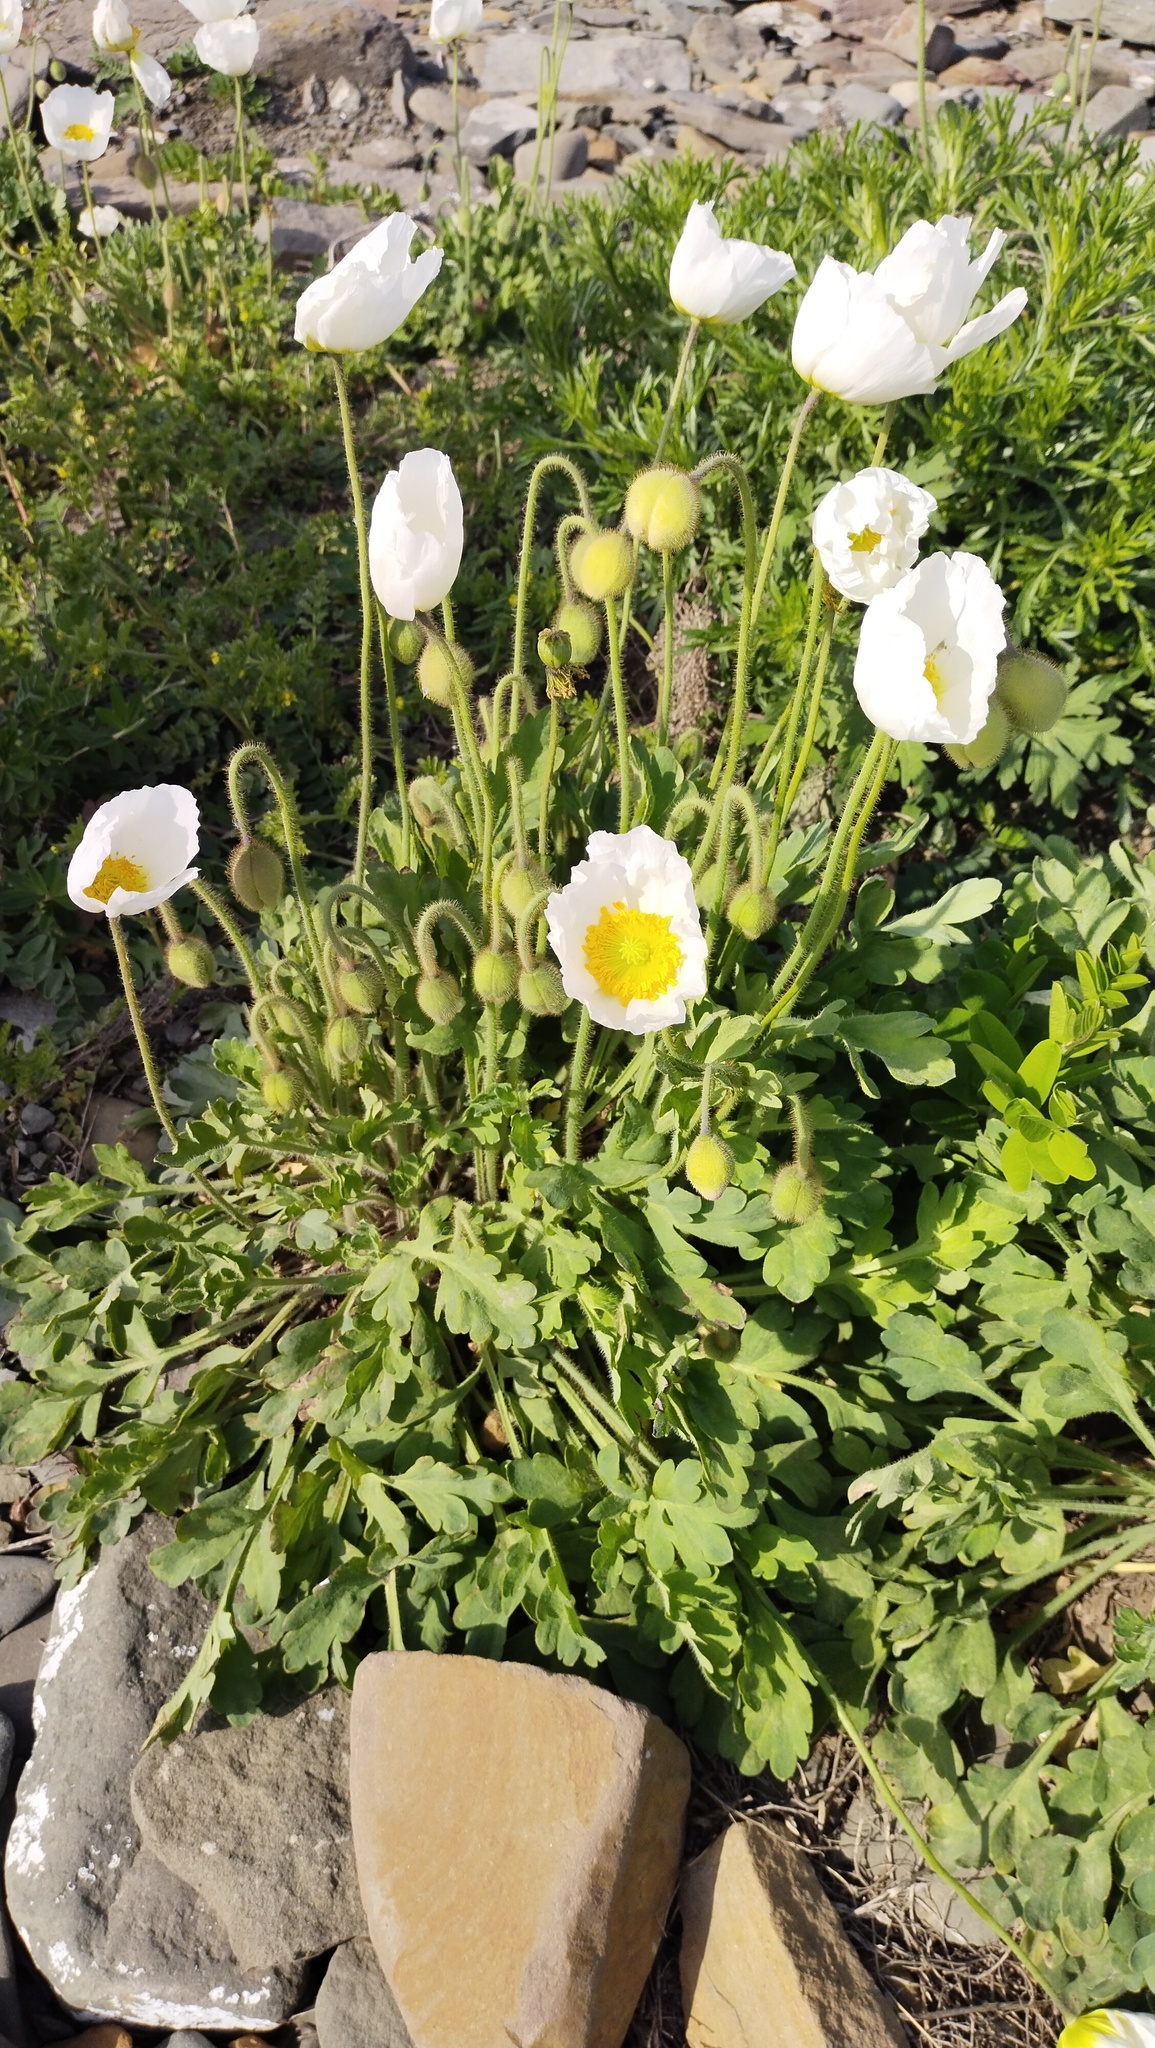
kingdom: Plantae
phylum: Tracheophyta
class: Magnoliopsida
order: Ranunculales
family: Papaveraceae
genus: Papaver
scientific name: Papaver sokolovskajae
